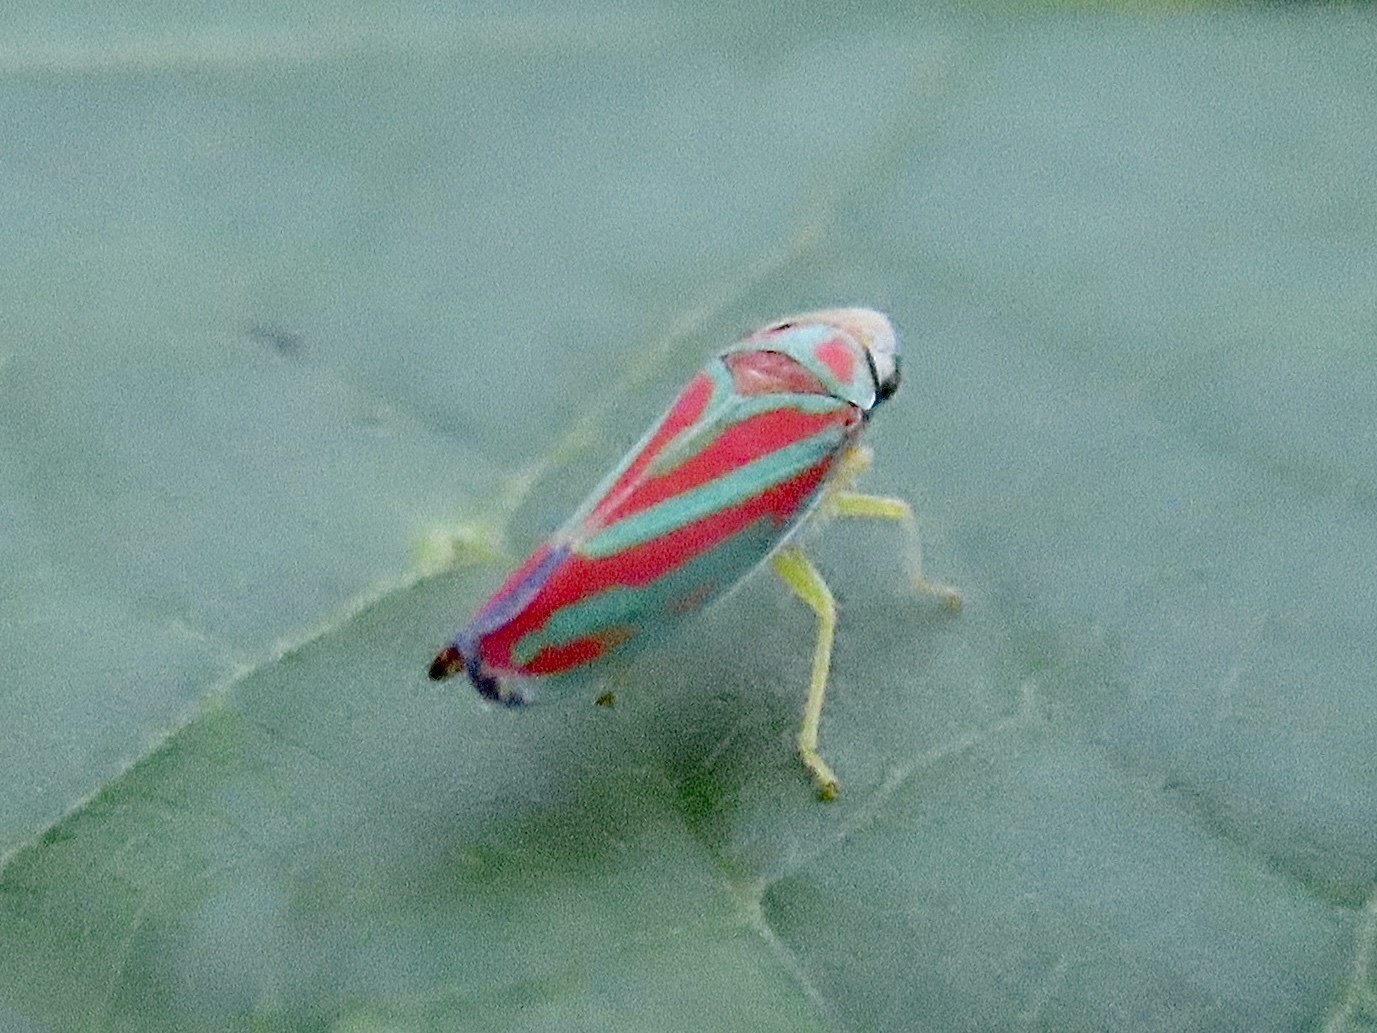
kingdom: Animalia
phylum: Arthropoda
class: Insecta
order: Hemiptera
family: Cicadellidae
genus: Graphocephala
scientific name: Graphocephala coccinea
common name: Candy-striped leafhopper
